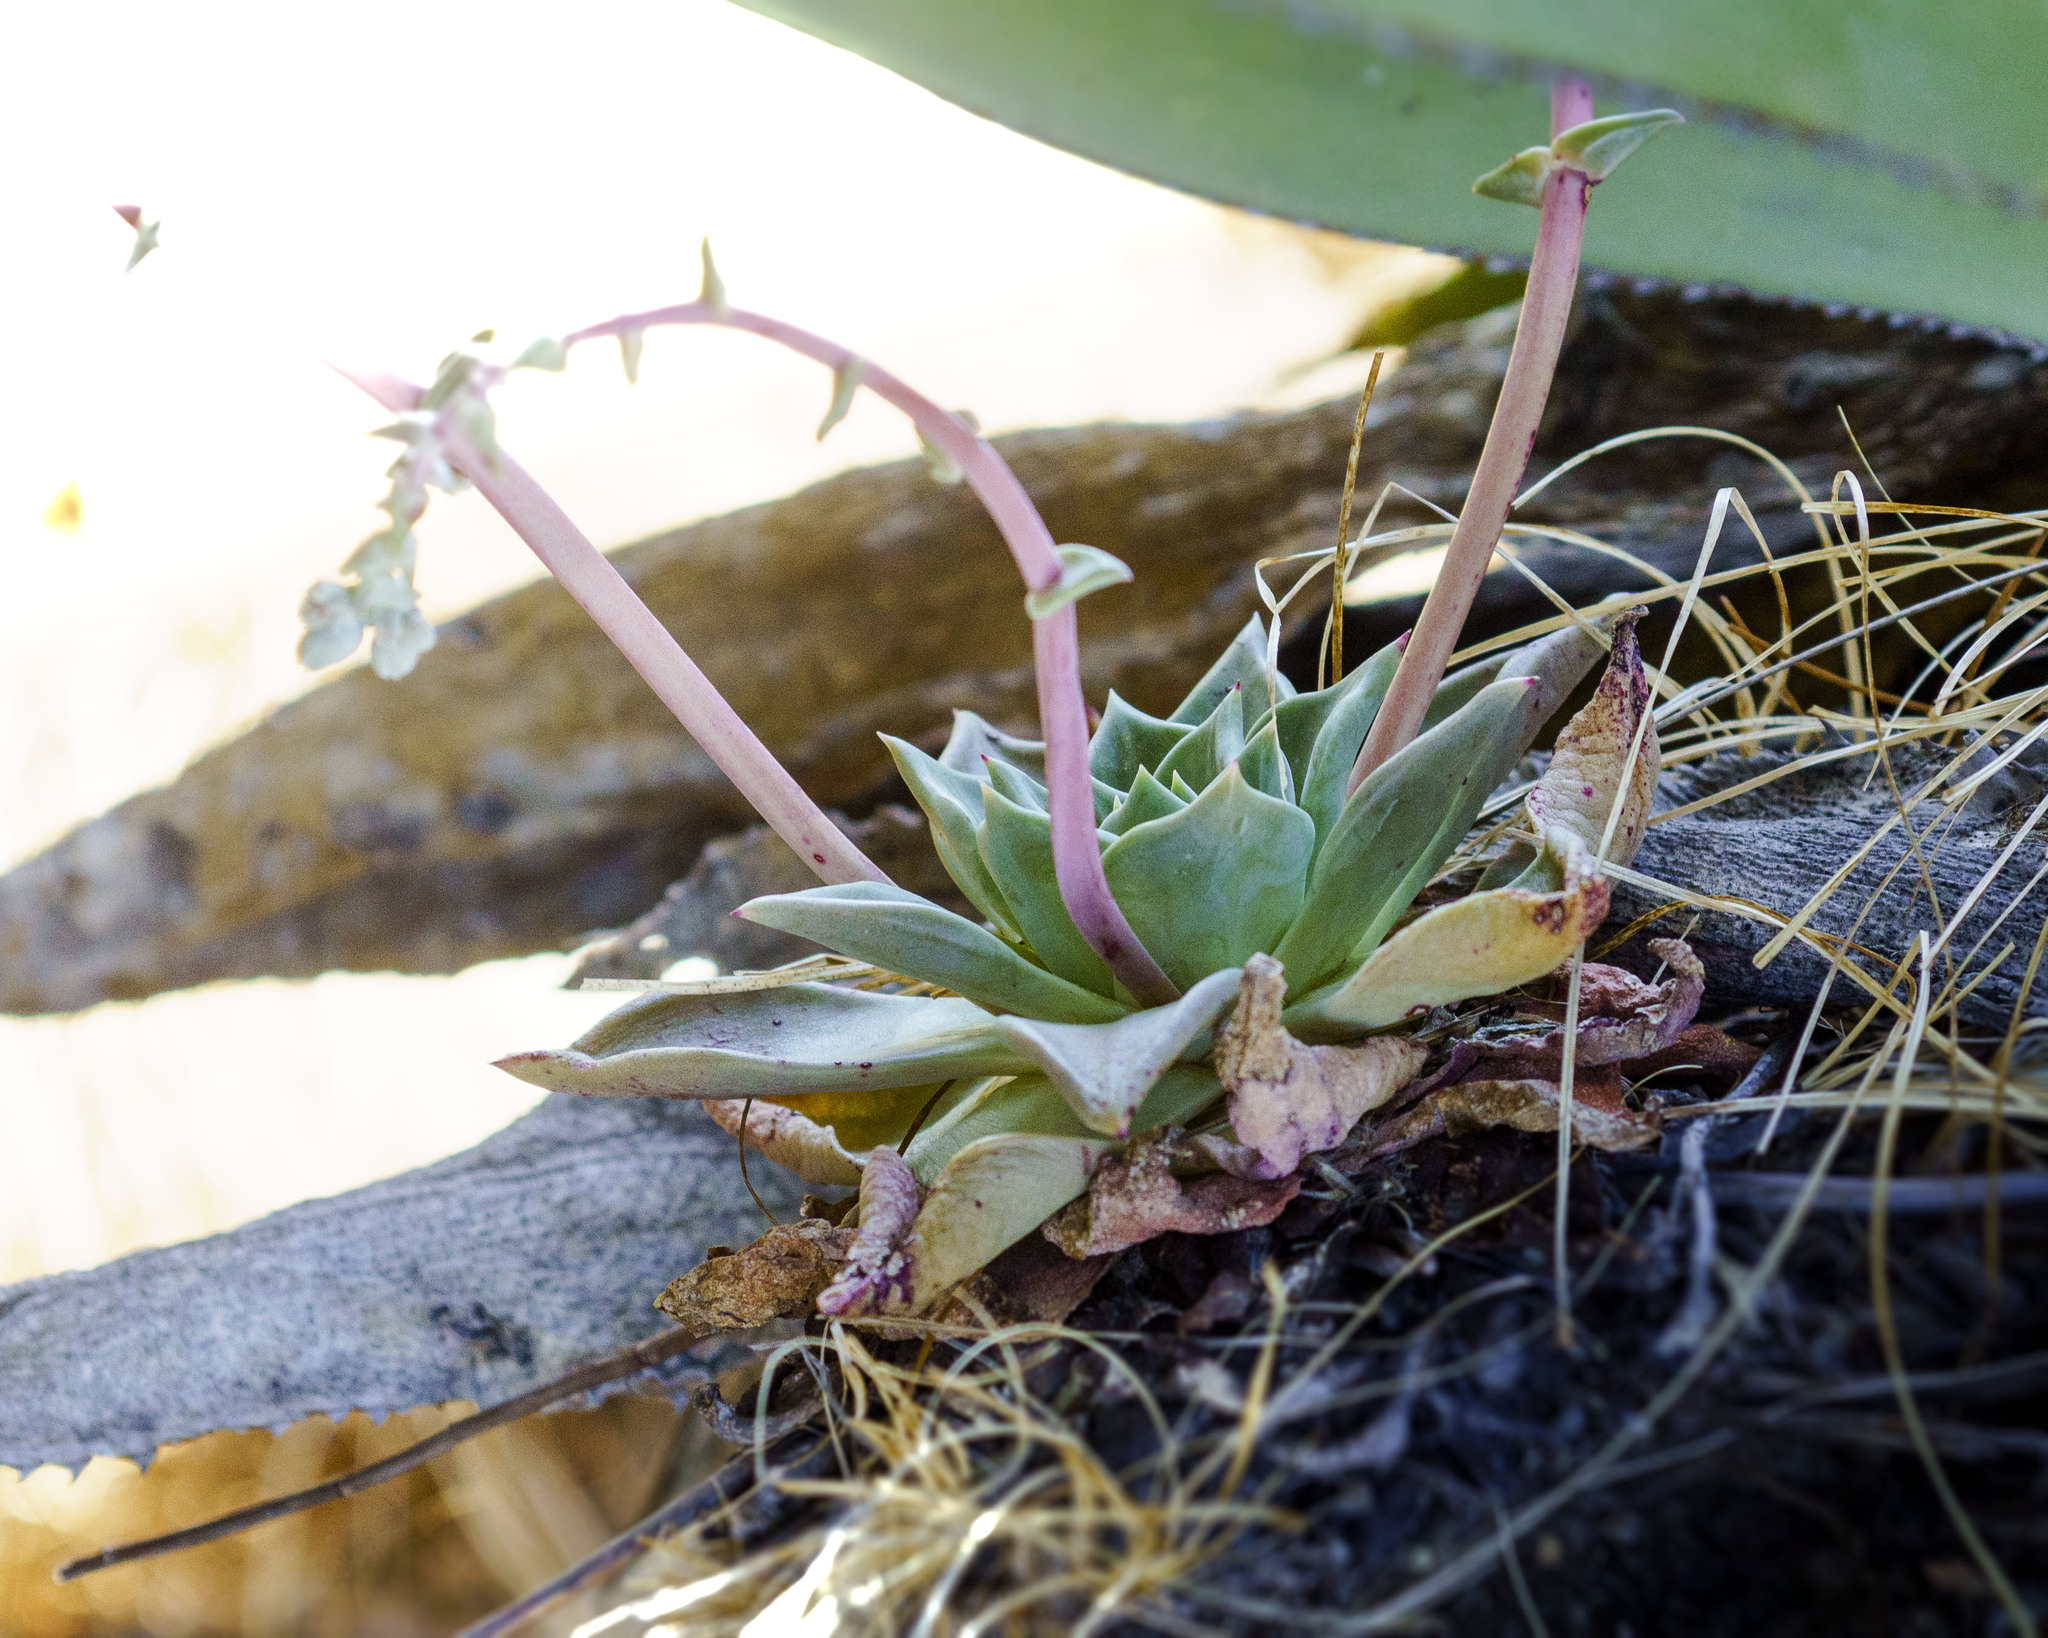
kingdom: Plantae
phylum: Tracheophyta
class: Magnoliopsida
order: Saxifragales
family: Crassulaceae
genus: Dudleya
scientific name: Dudleya rigida
